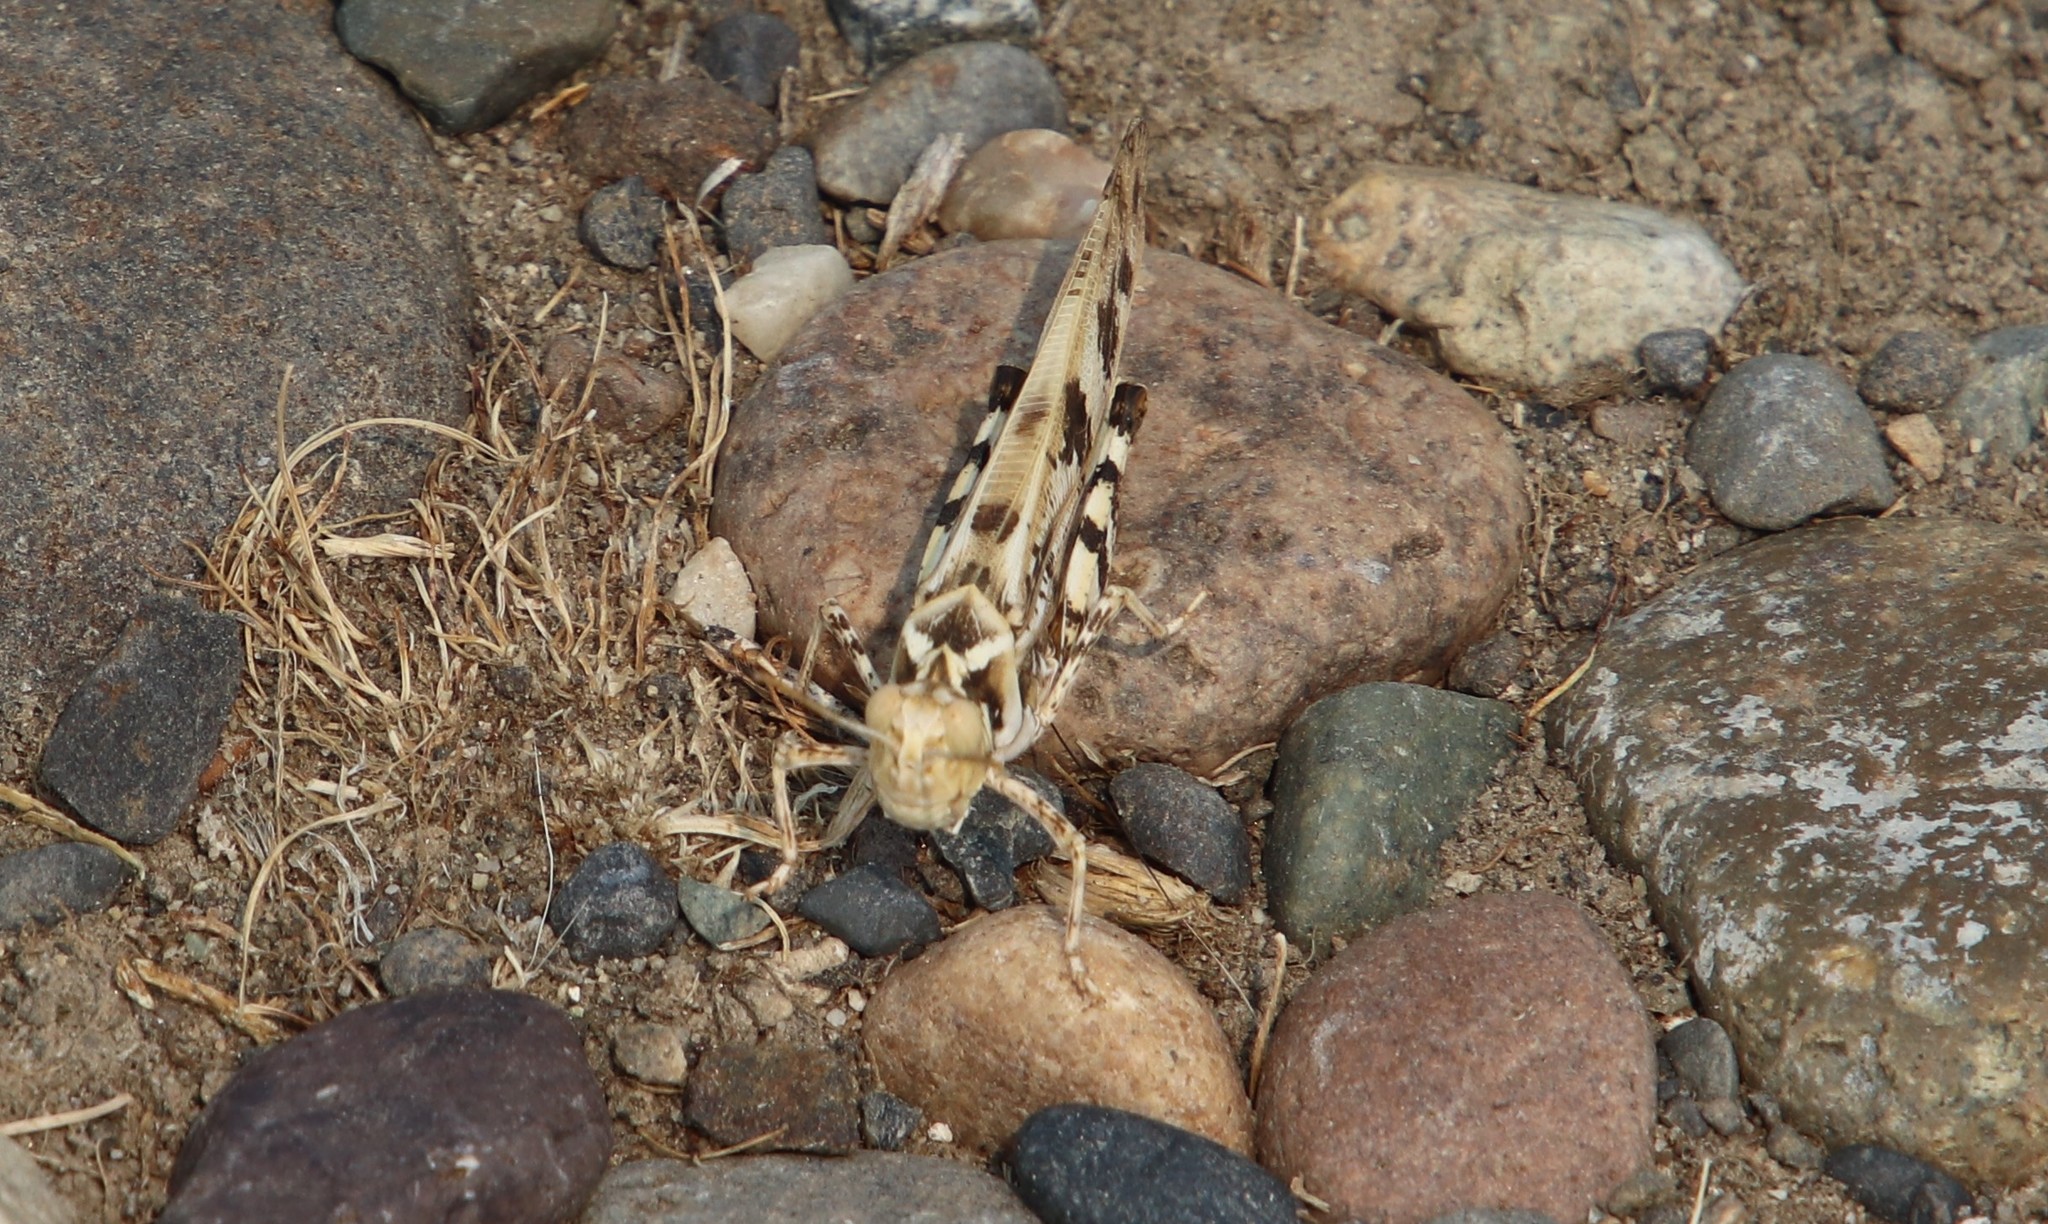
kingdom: Animalia
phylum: Arthropoda
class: Insecta
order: Orthoptera
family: Acrididae
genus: Dissosteira
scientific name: Dissosteira spurcata
